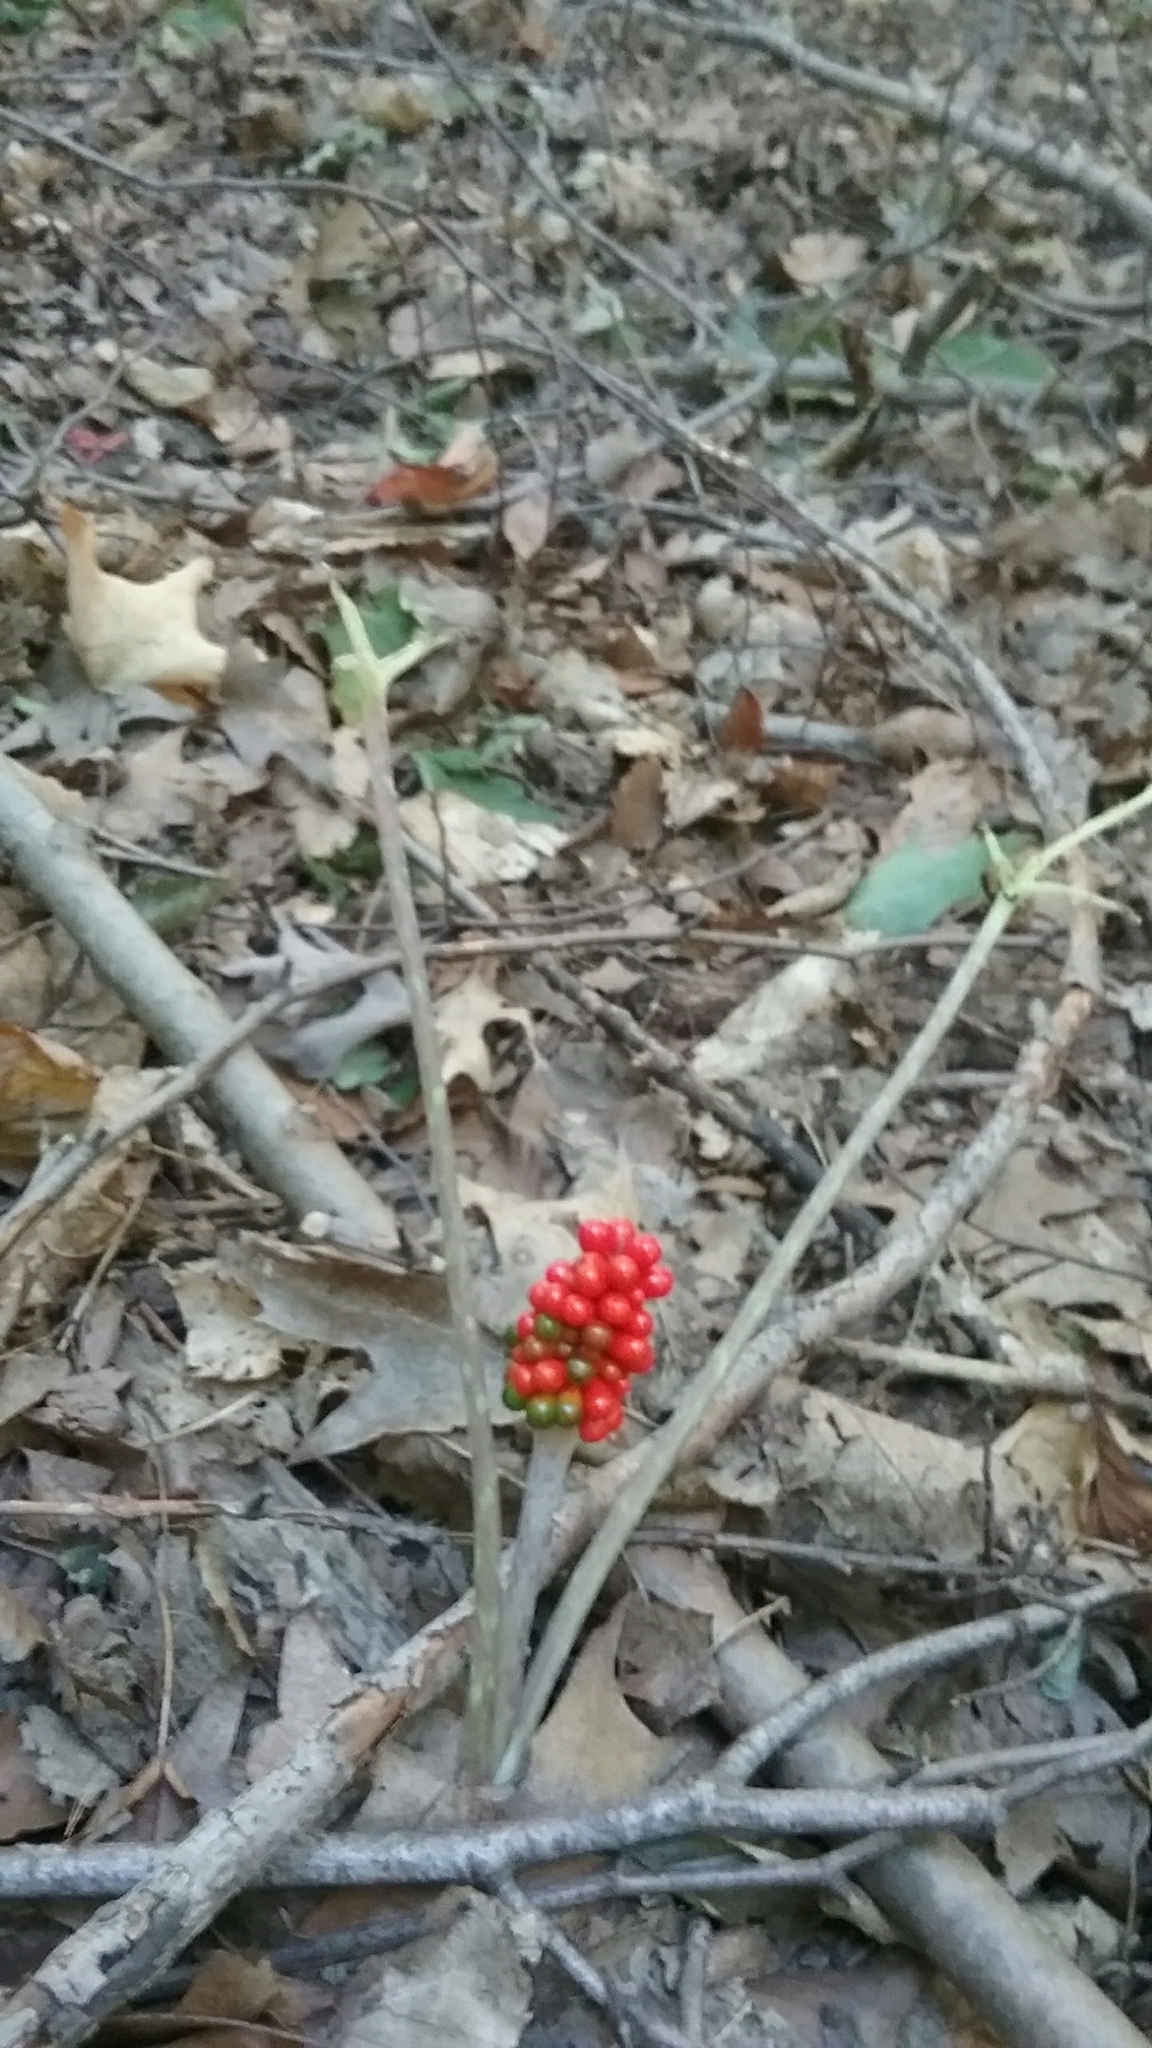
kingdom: Plantae
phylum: Tracheophyta
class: Liliopsida
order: Alismatales
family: Araceae
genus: Arisaema
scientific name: Arisaema triphyllum
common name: Jack-in-the-pulpit
